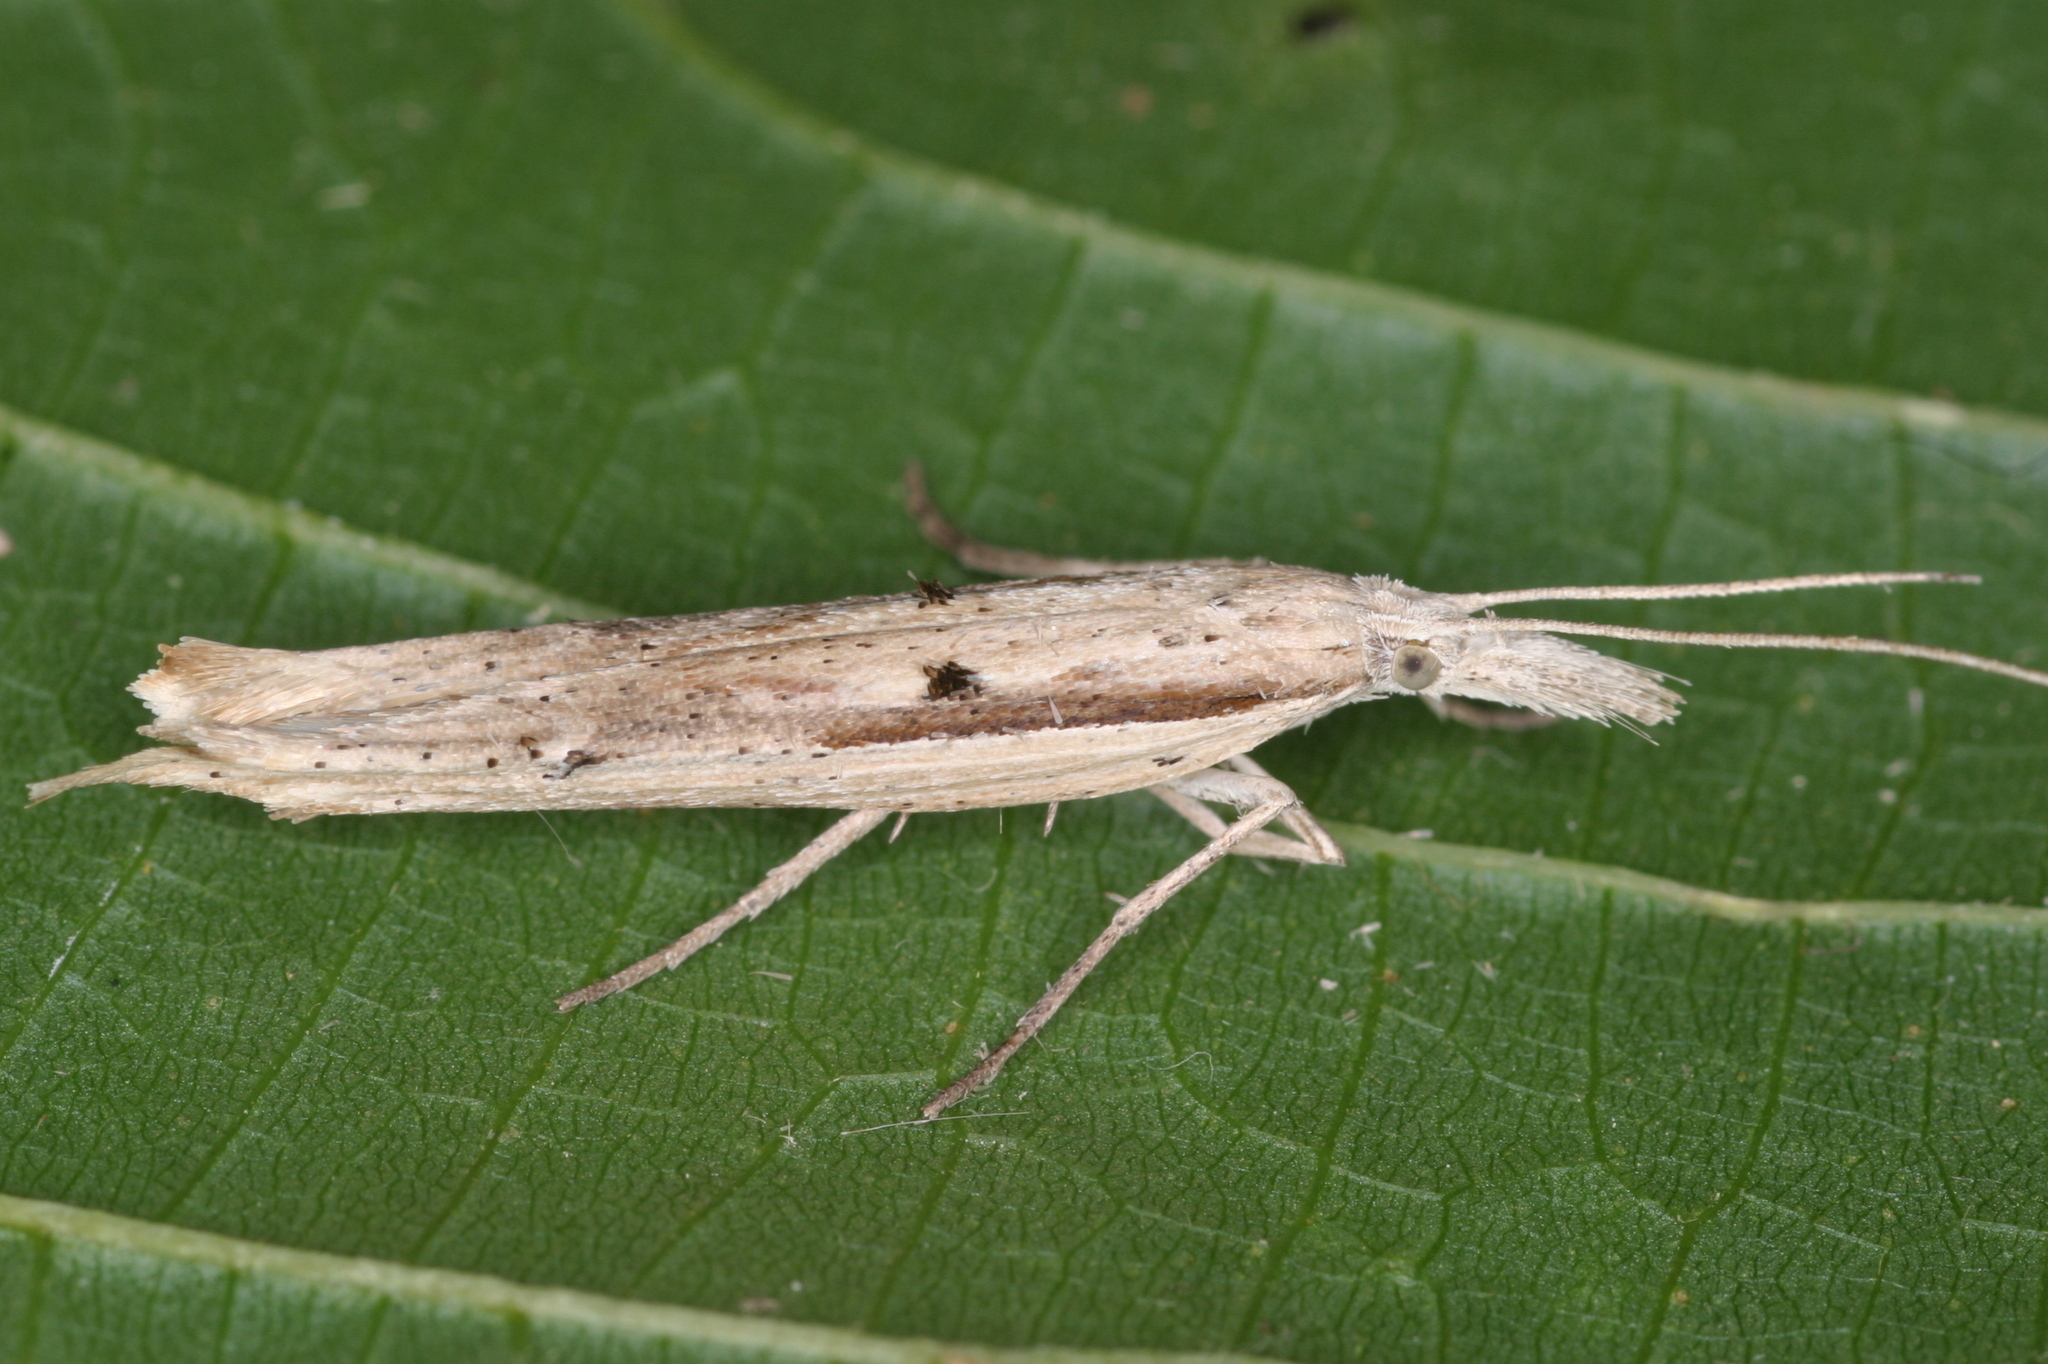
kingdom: Animalia
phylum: Arthropoda
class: Insecta
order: Lepidoptera
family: Ypsolophidae
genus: Ypsolopha
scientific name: Ypsolopha mucronella
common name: Spindle smudge
